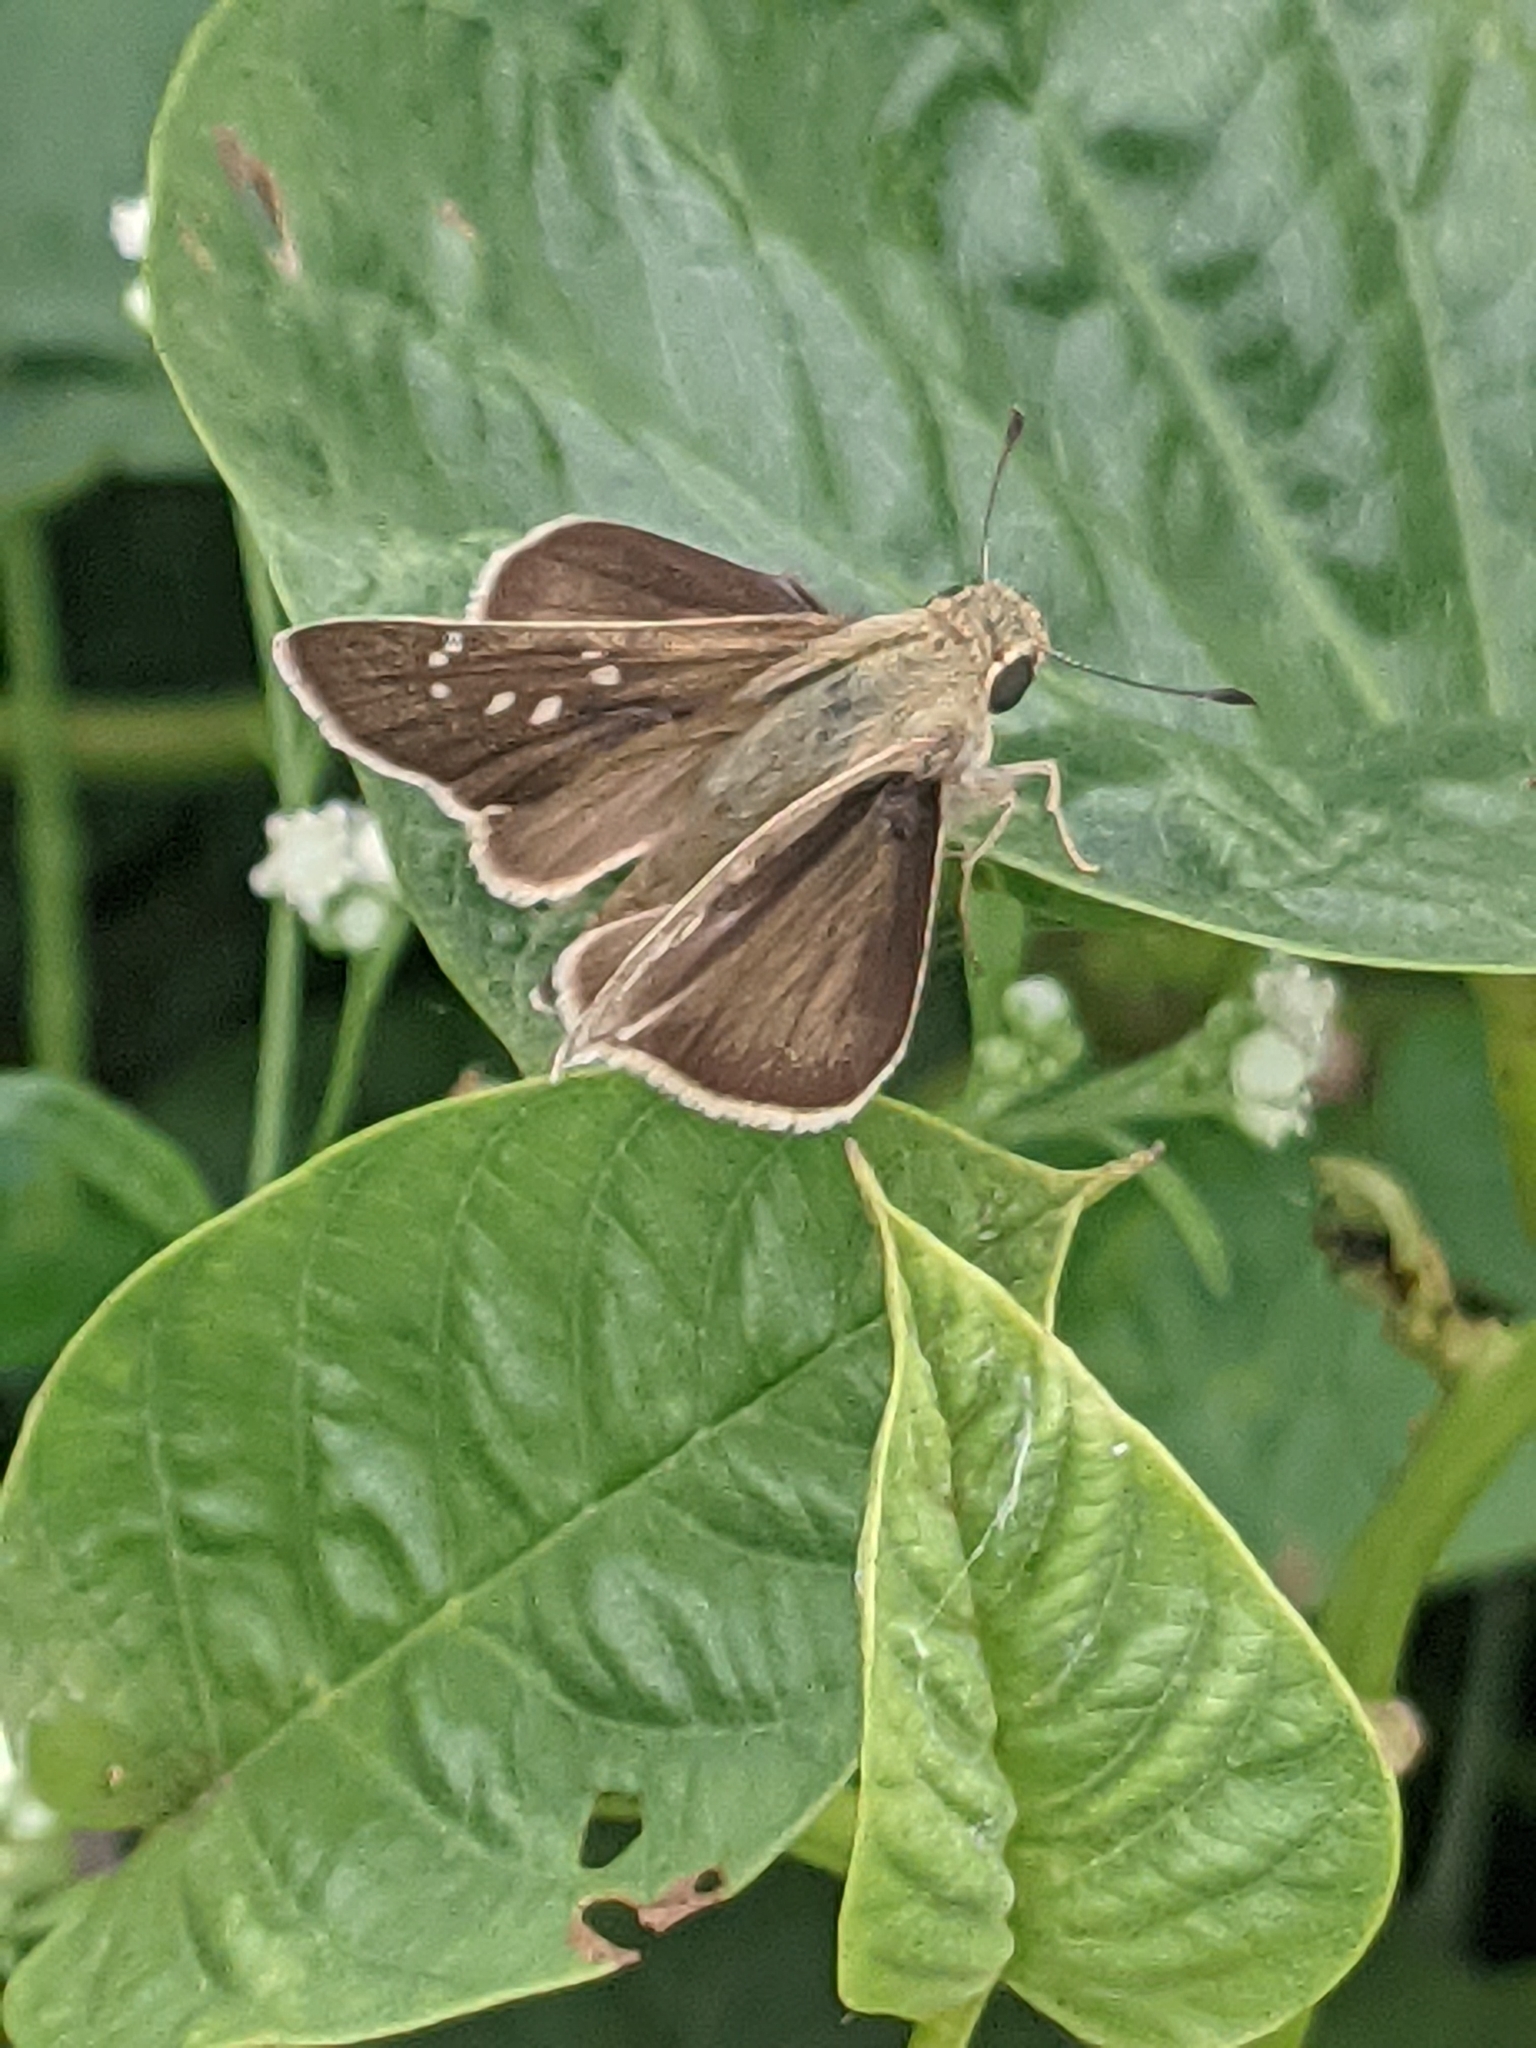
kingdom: Animalia
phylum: Arthropoda
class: Insecta
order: Lepidoptera
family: Hesperiidae
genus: Pelopidas
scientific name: Pelopidas mathias
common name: Black-branded swift
